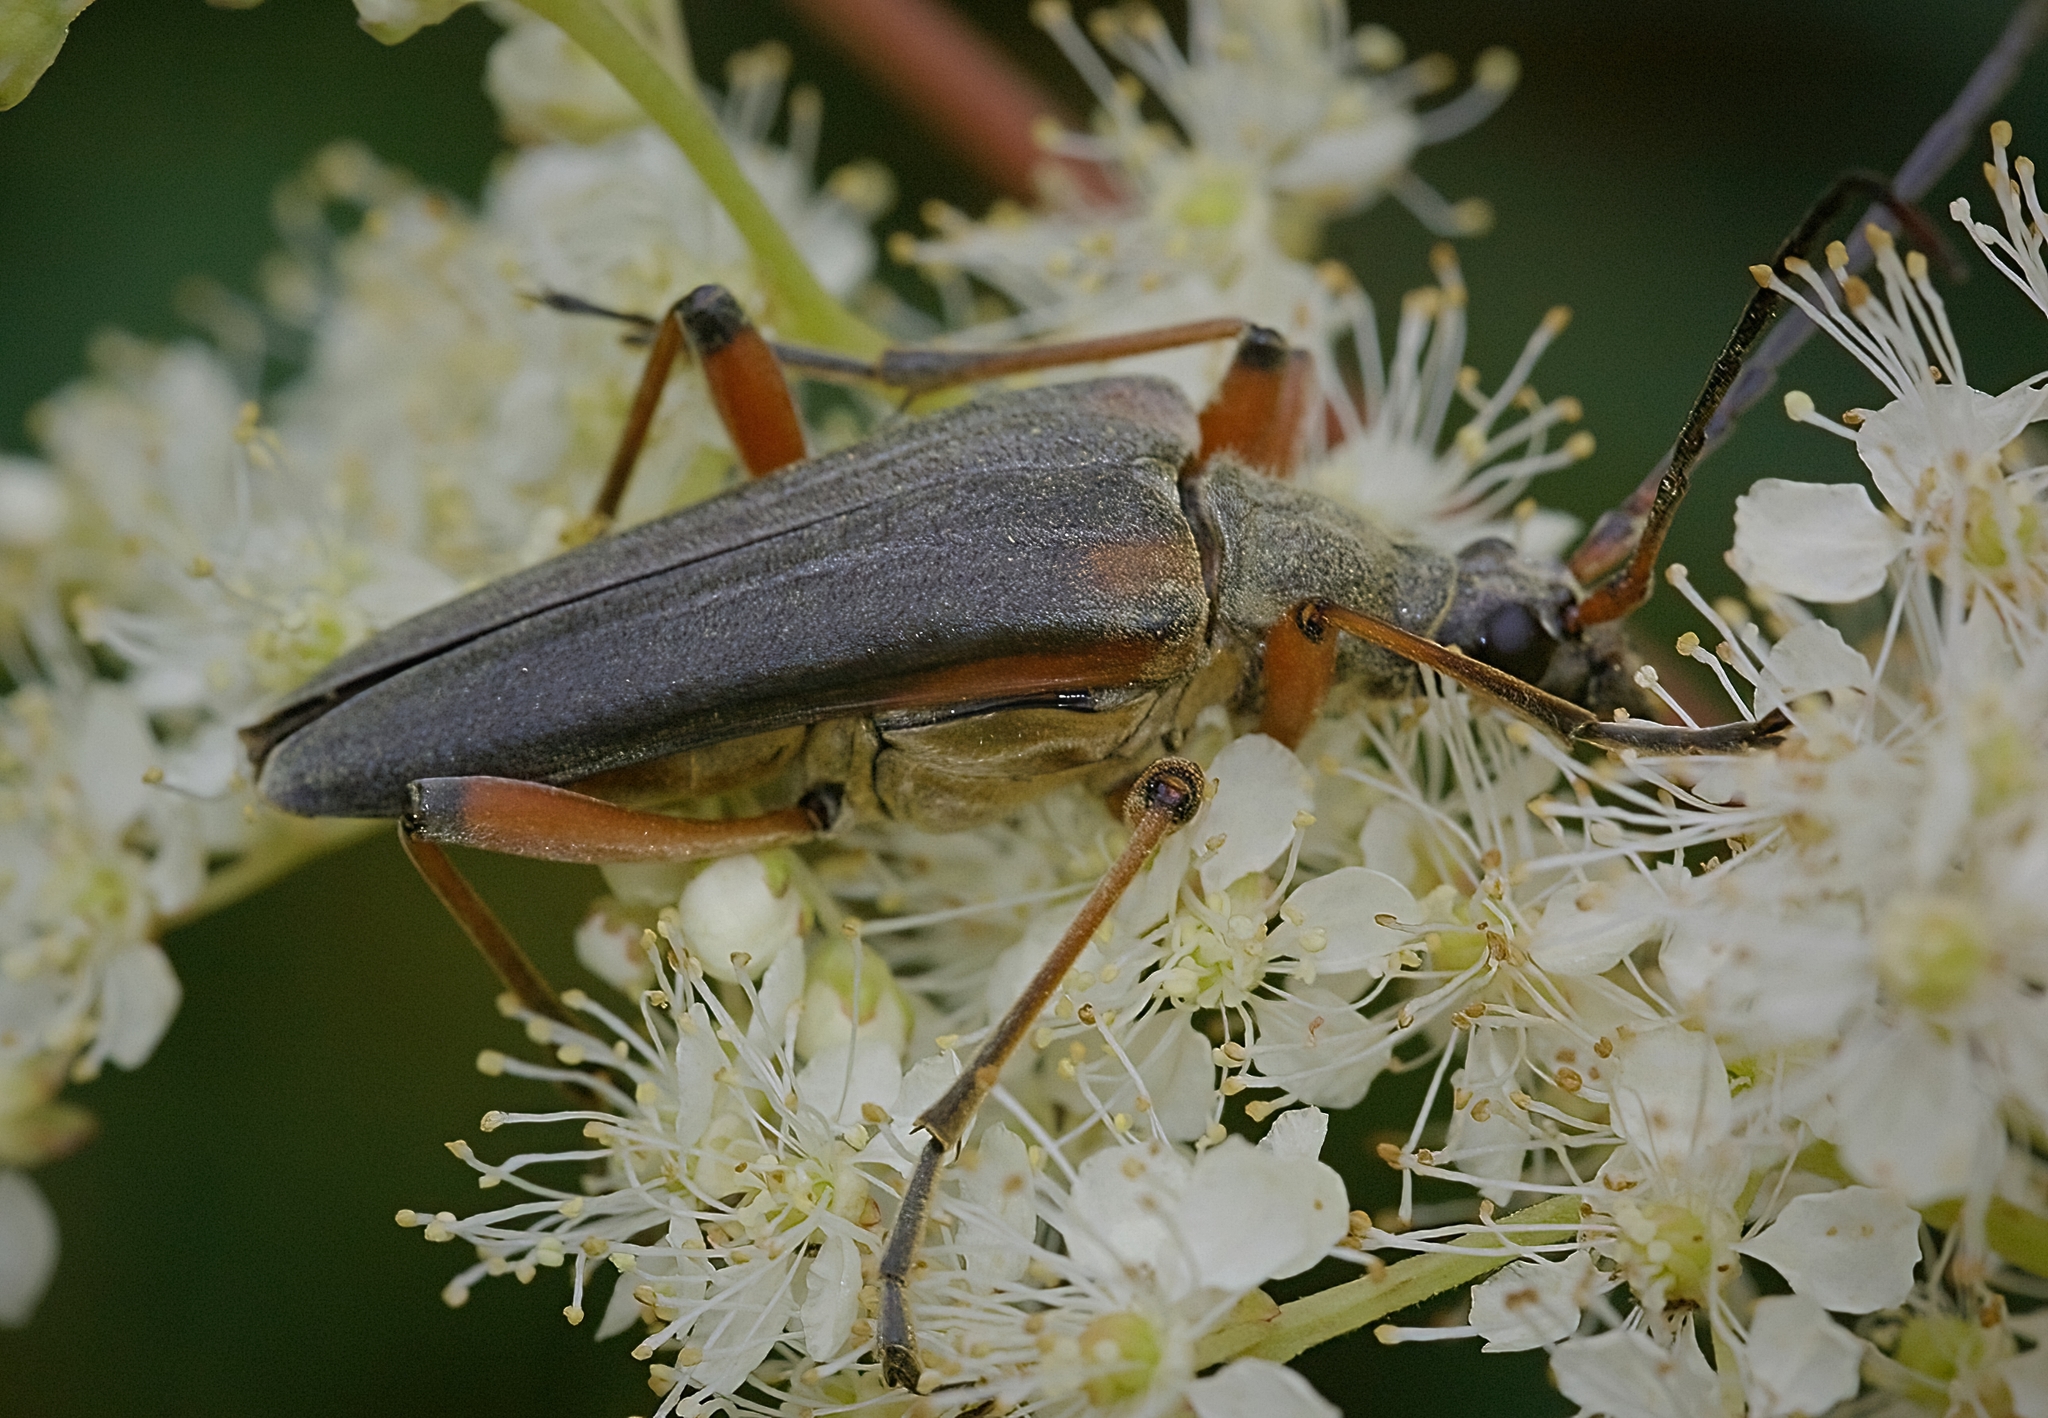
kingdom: Animalia
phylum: Arthropoda
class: Insecta
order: Coleoptera
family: Cerambycidae
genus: Stenocorus
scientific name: Stenocorus meridianus
